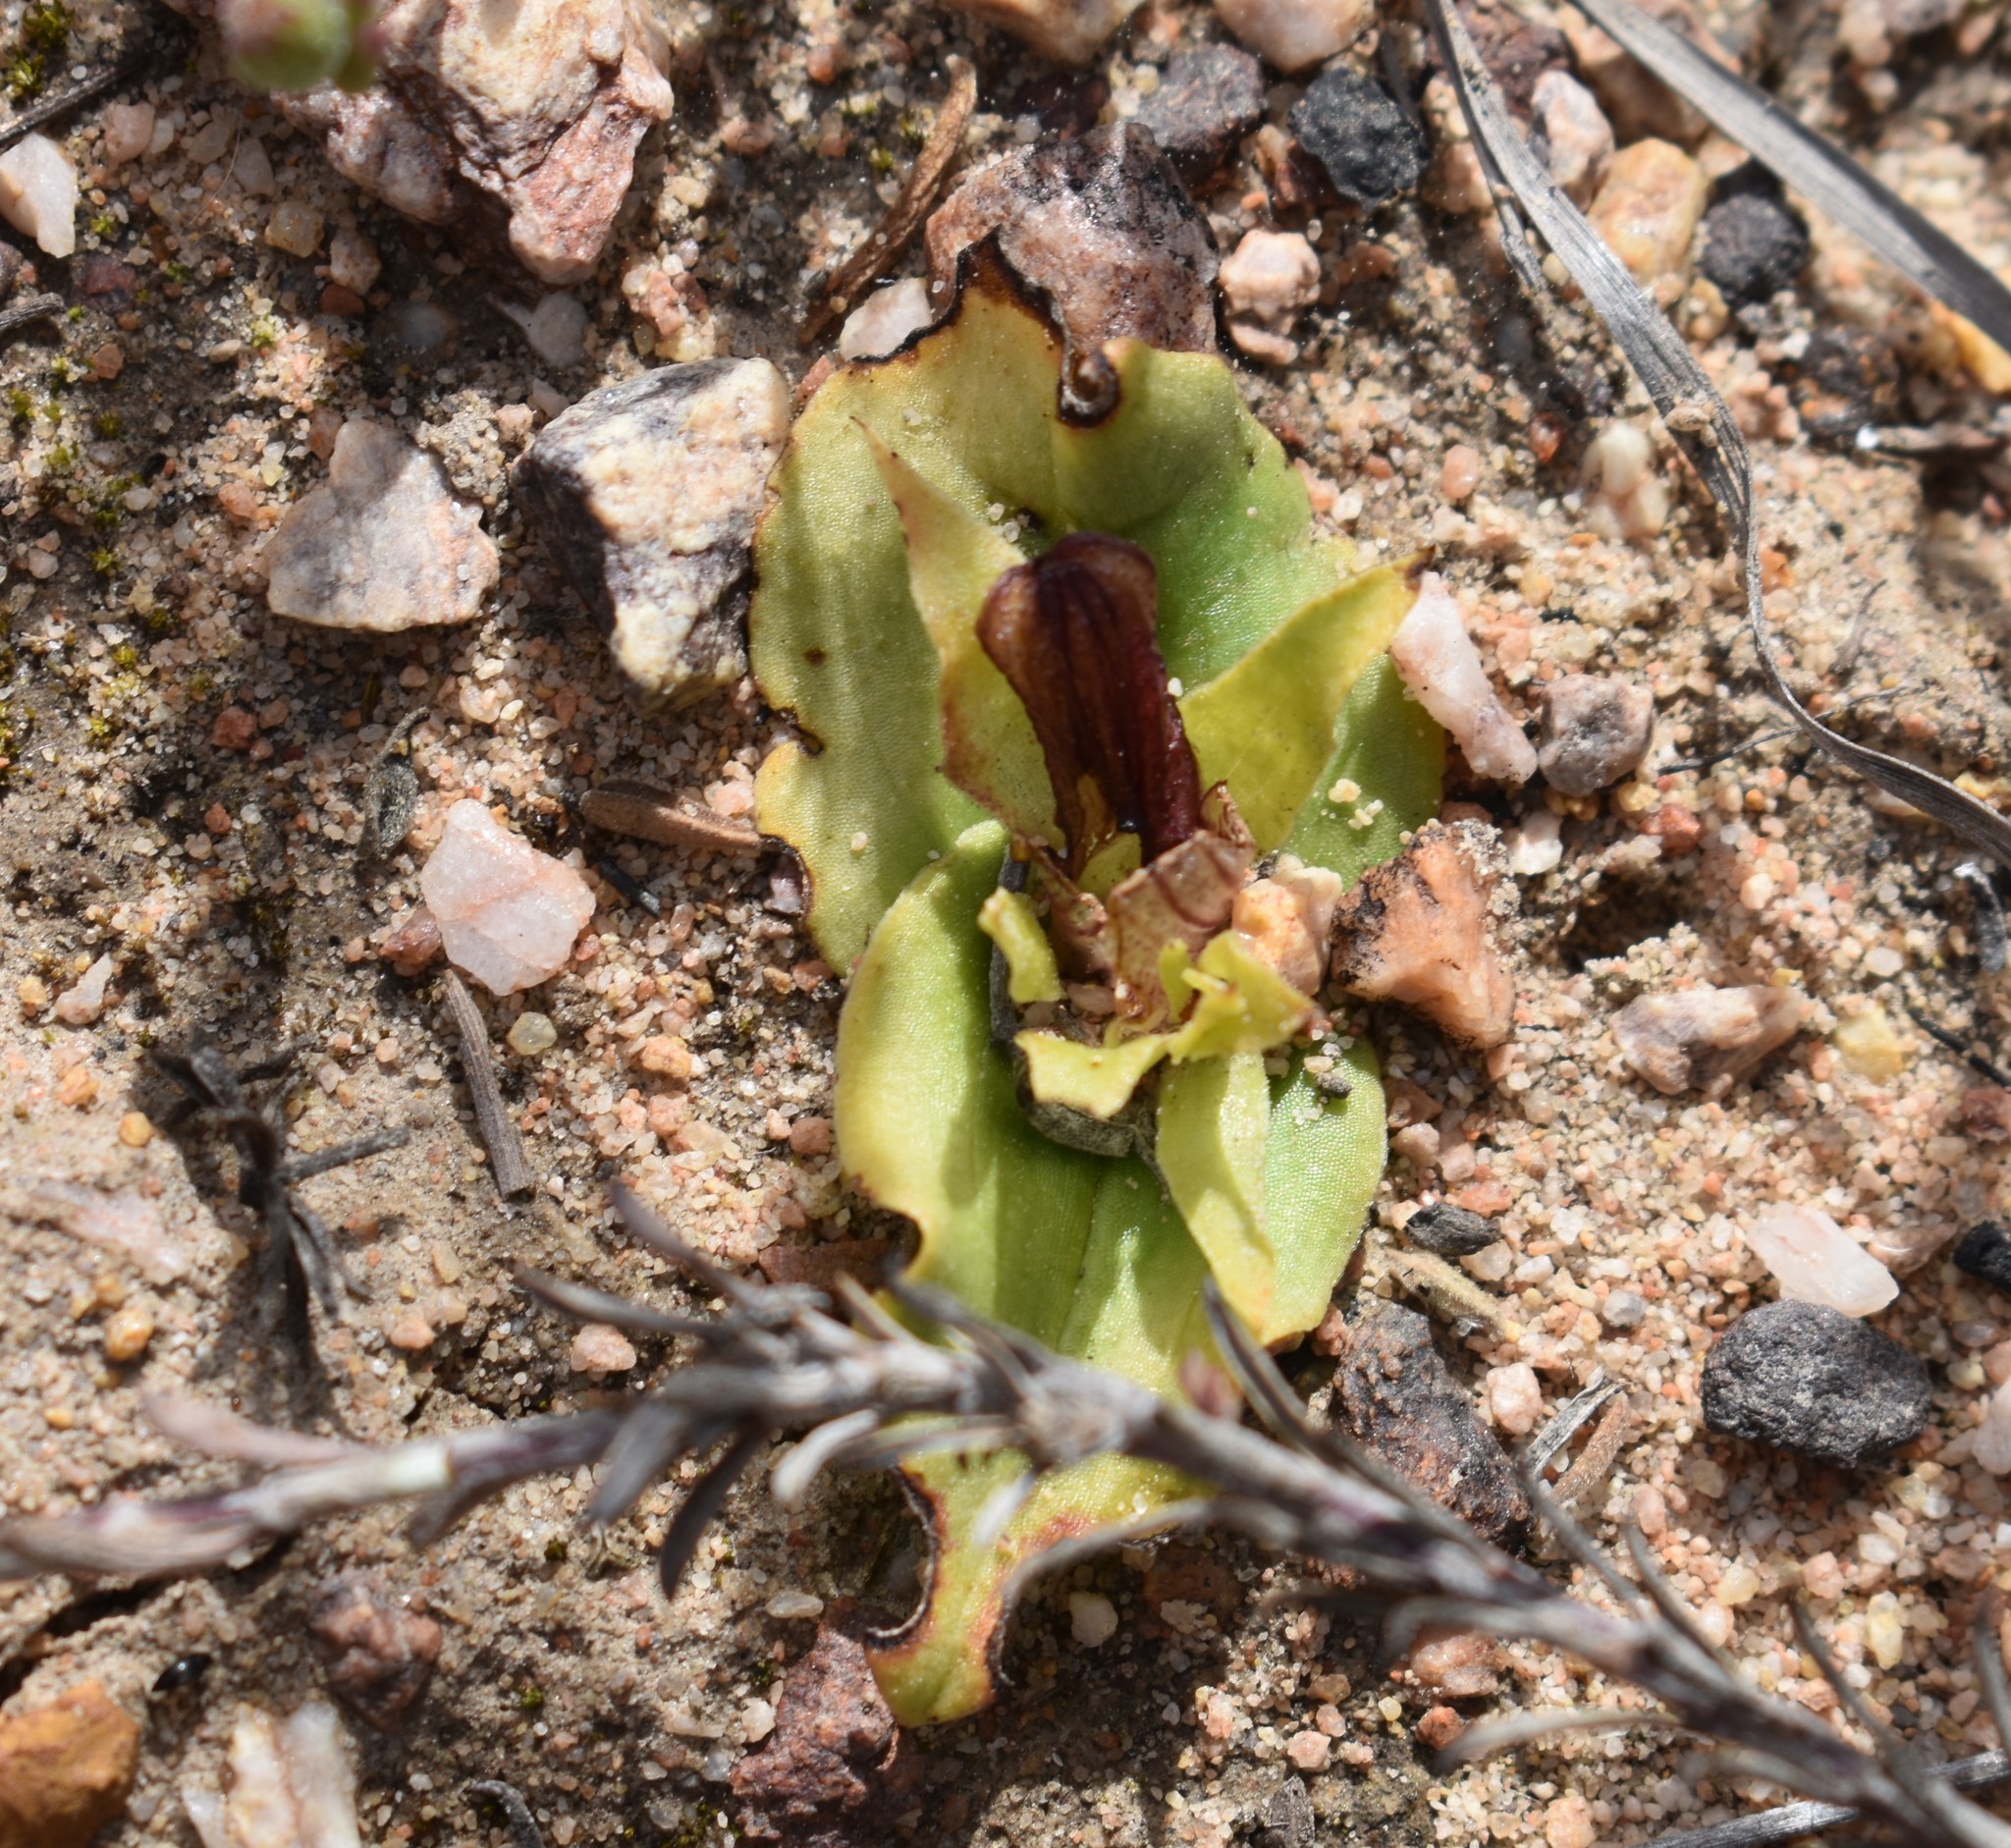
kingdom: Plantae
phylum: Tracheophyta
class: Liliopsida
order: Asparagales
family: Orchidaceae
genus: Satyrium
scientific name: Satyrium pumilum
